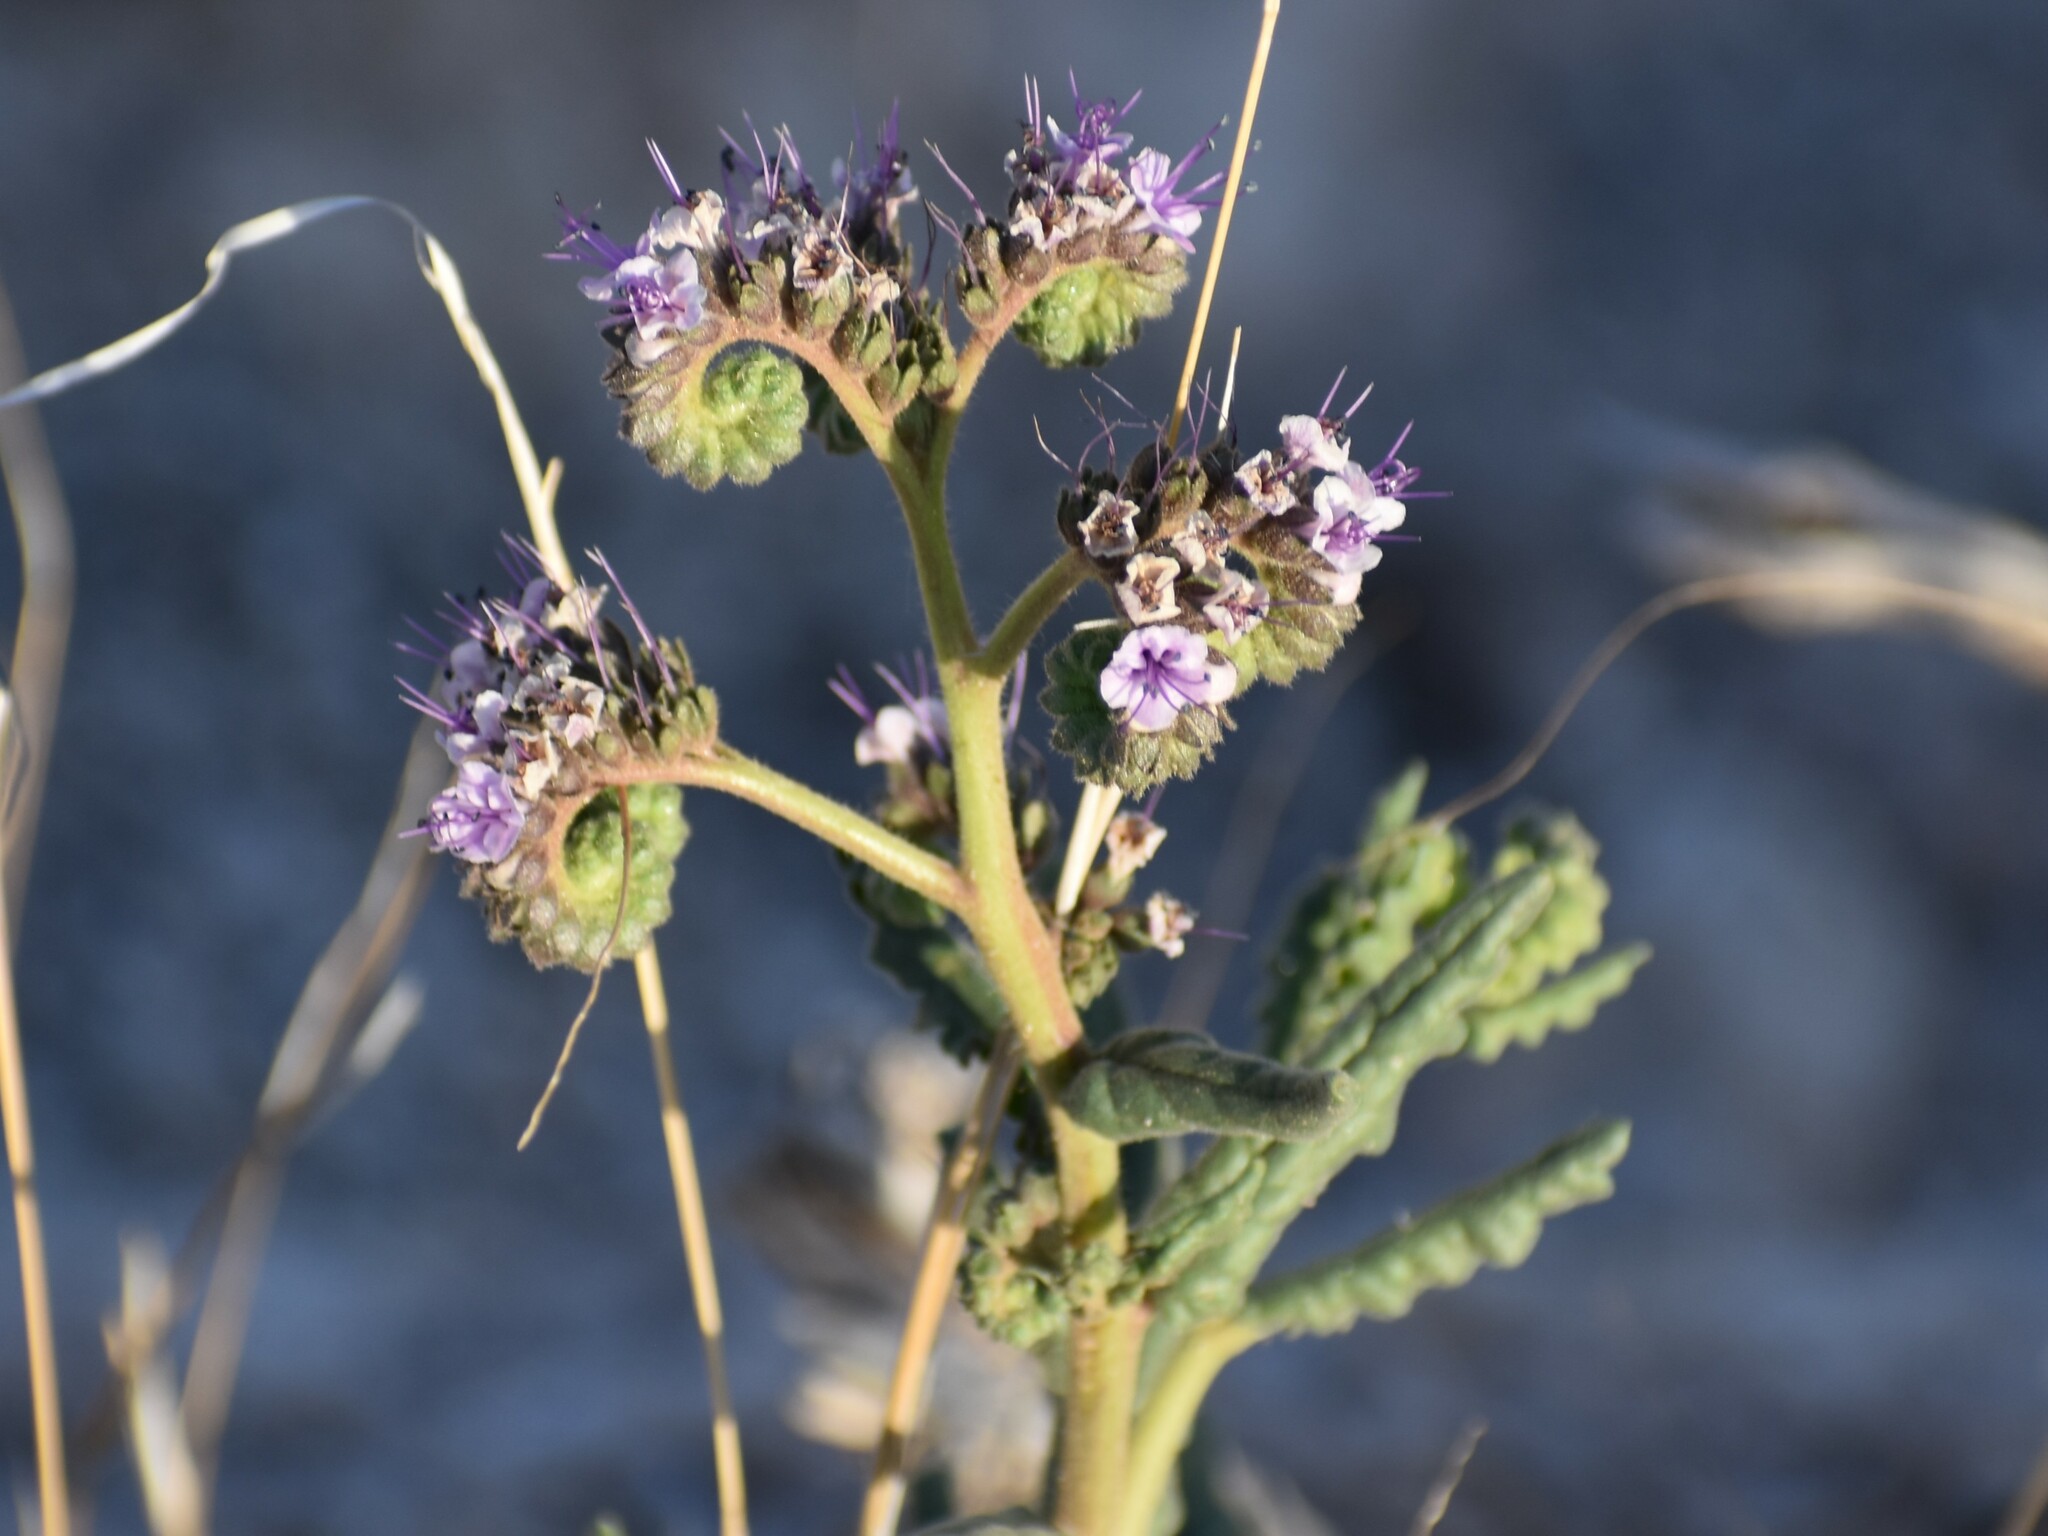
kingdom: Plantae
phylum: Tracheophyta
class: Magnoliopsida
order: Boraginales
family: Hydrophyllaceae
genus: Phacelia
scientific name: Phacelia integrifolia
